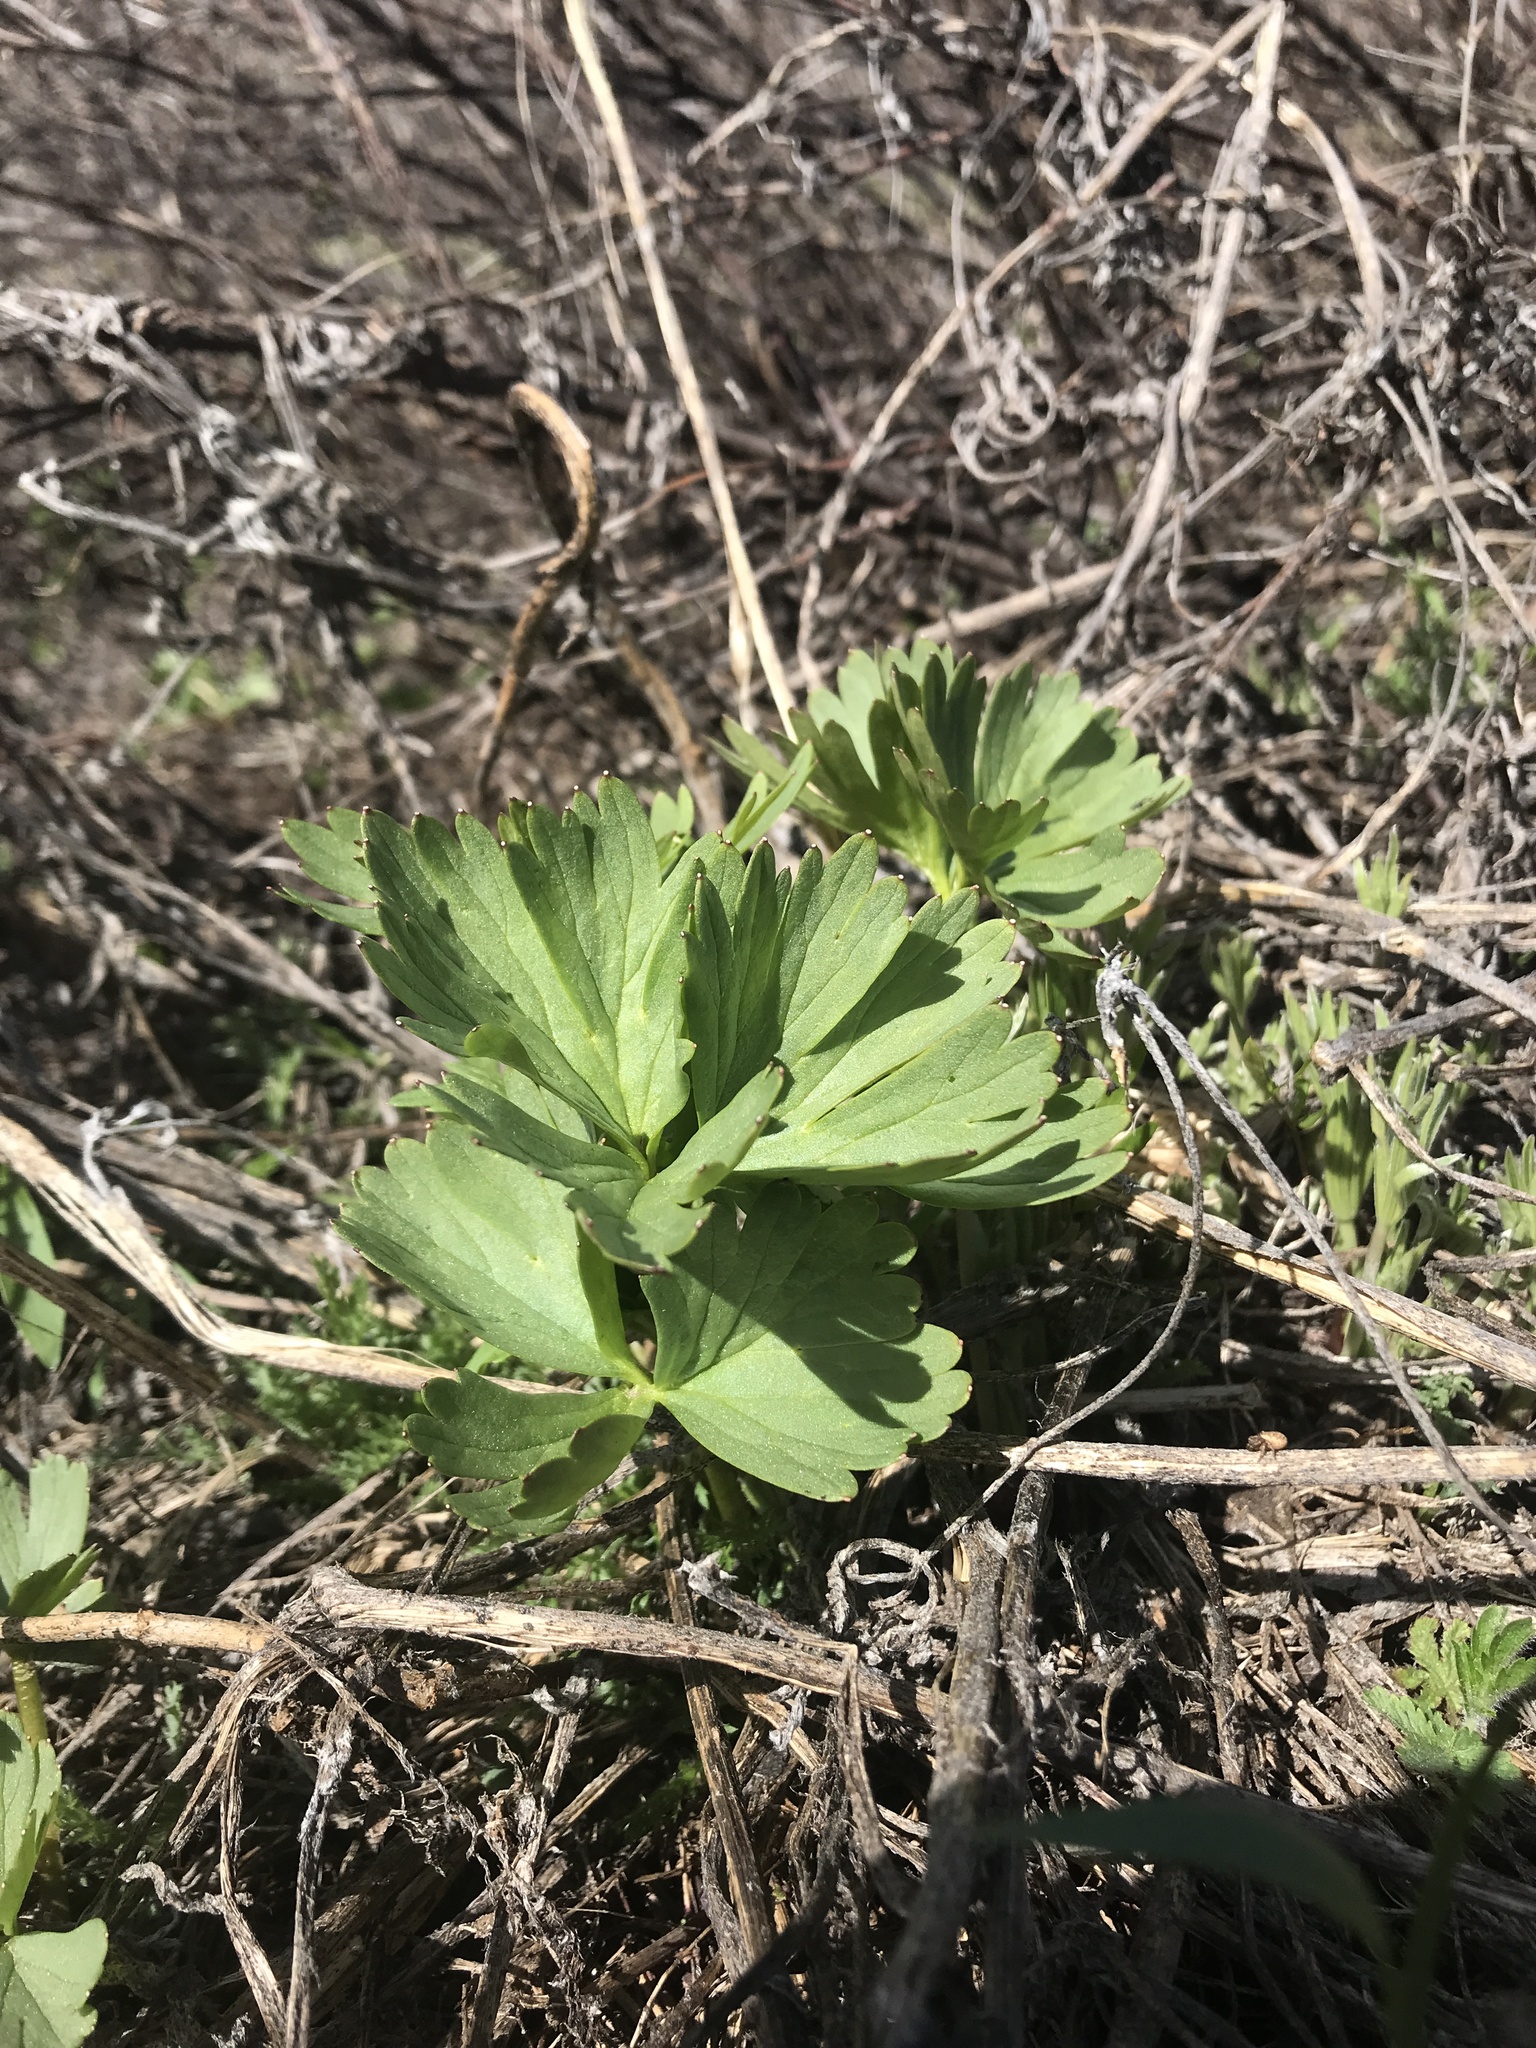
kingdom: Plantae
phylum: Tracheophyta
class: Magnoliopsida
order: Ranunculales
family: Ranunculaceae
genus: Delphinium
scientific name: Delphinium viridescens
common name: Wenatchee larkspur
